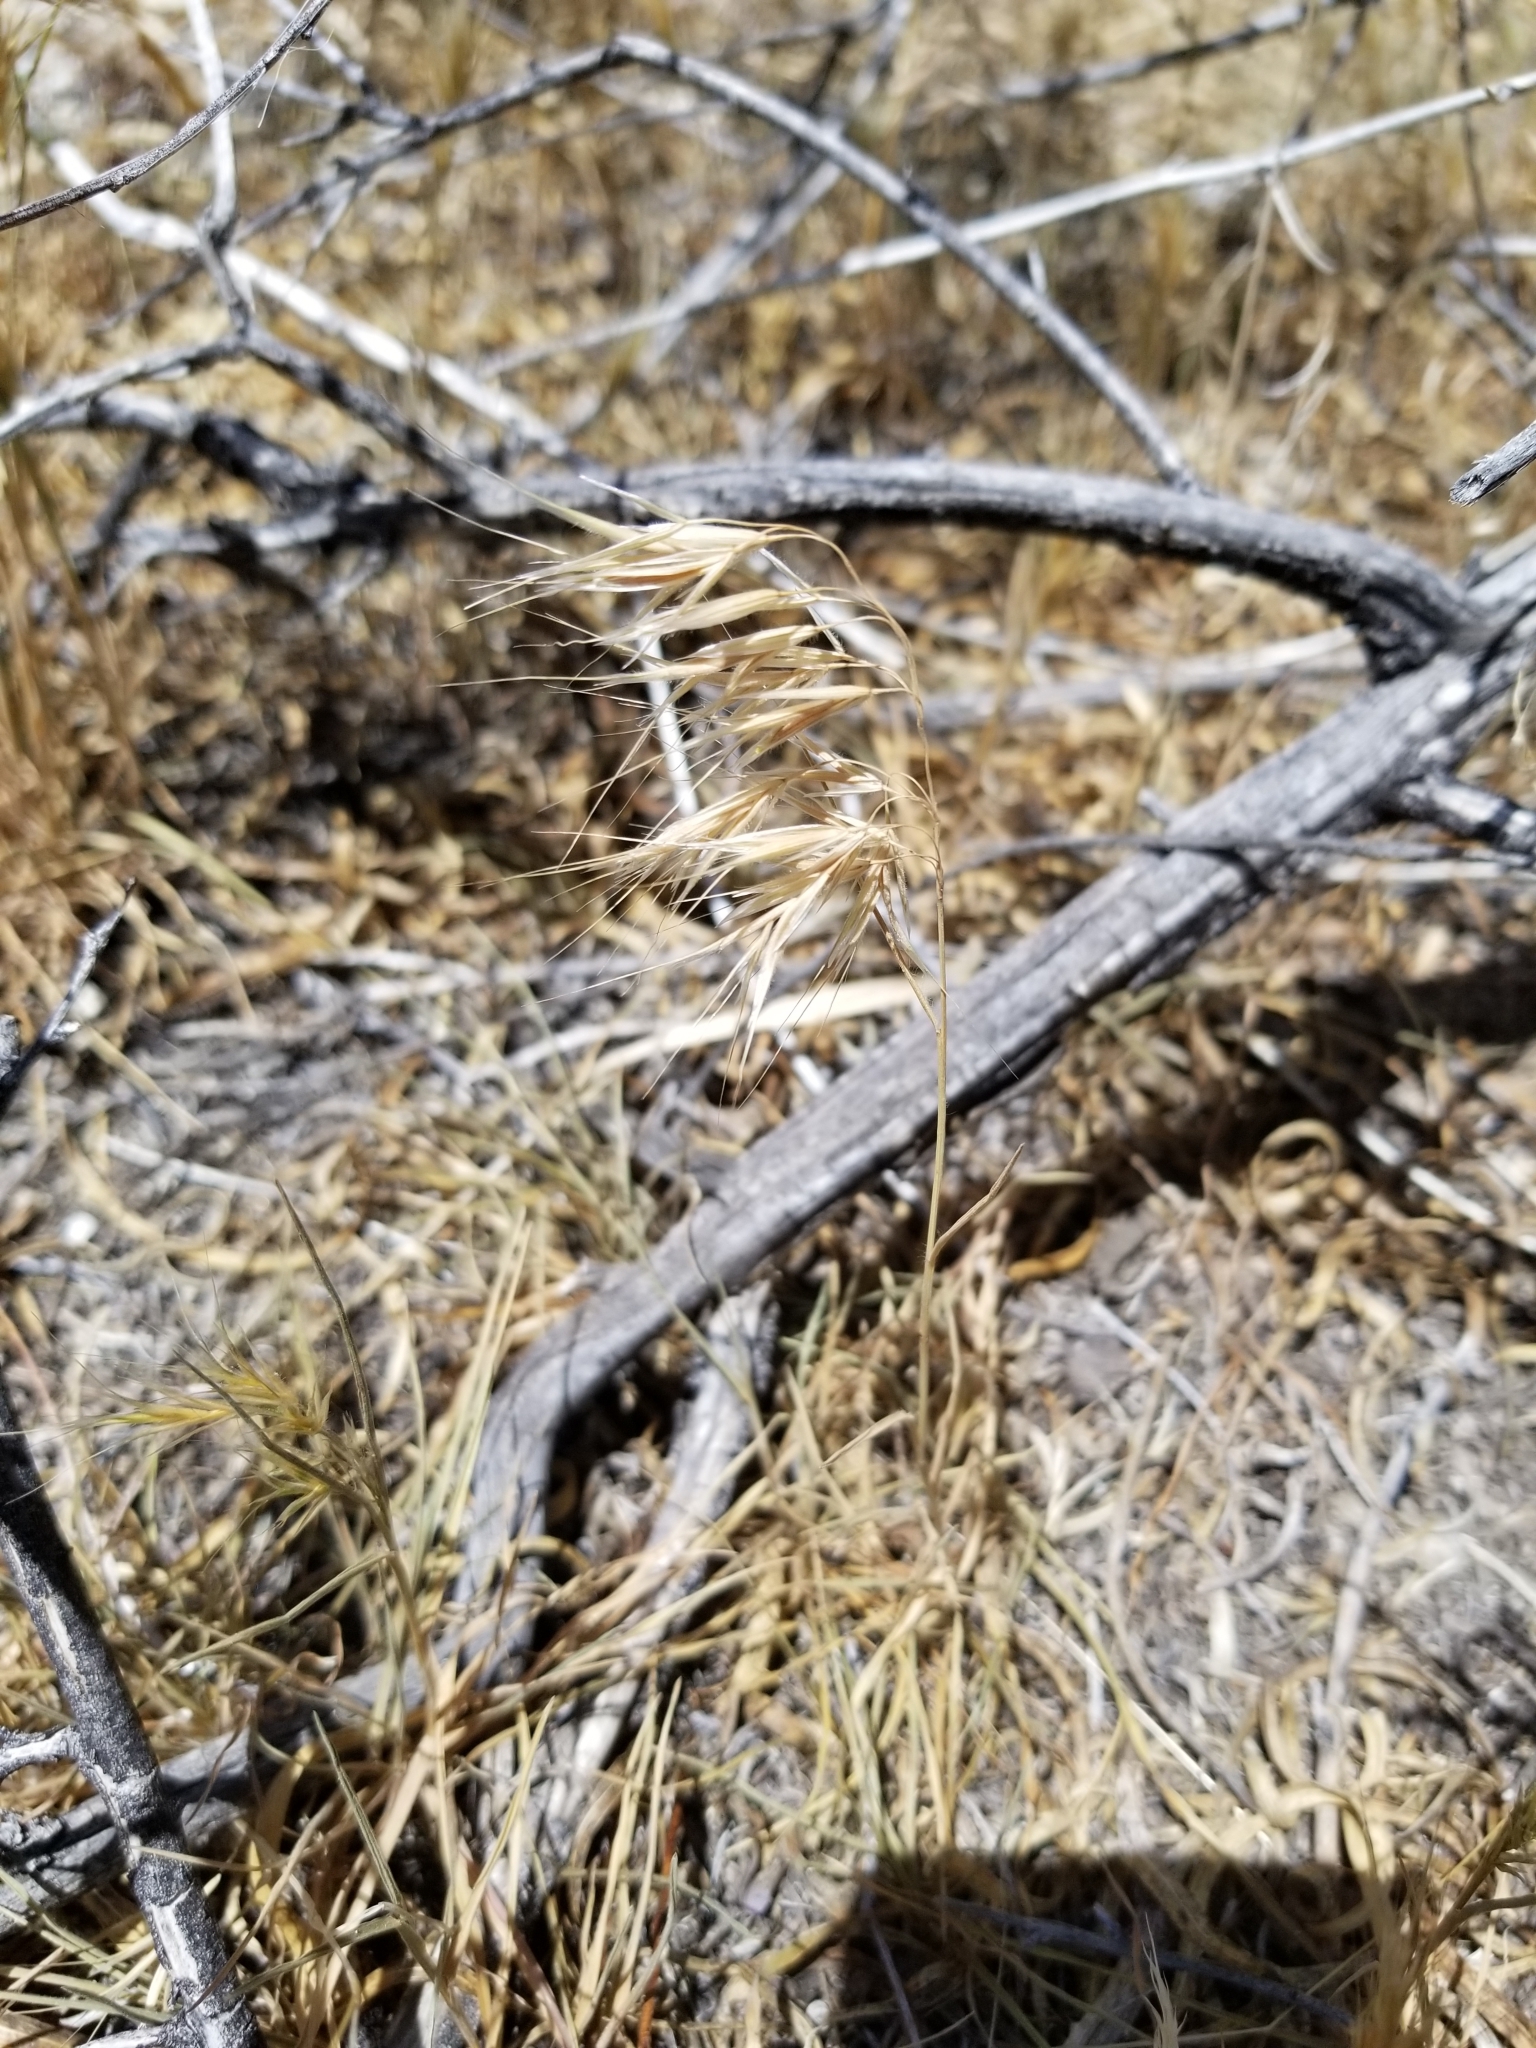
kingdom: Plantae
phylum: Tracheophyta
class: Liliopsida
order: Poales
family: Poaceae
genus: Bromus
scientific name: Bromus tectorum
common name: Cheatgrass
